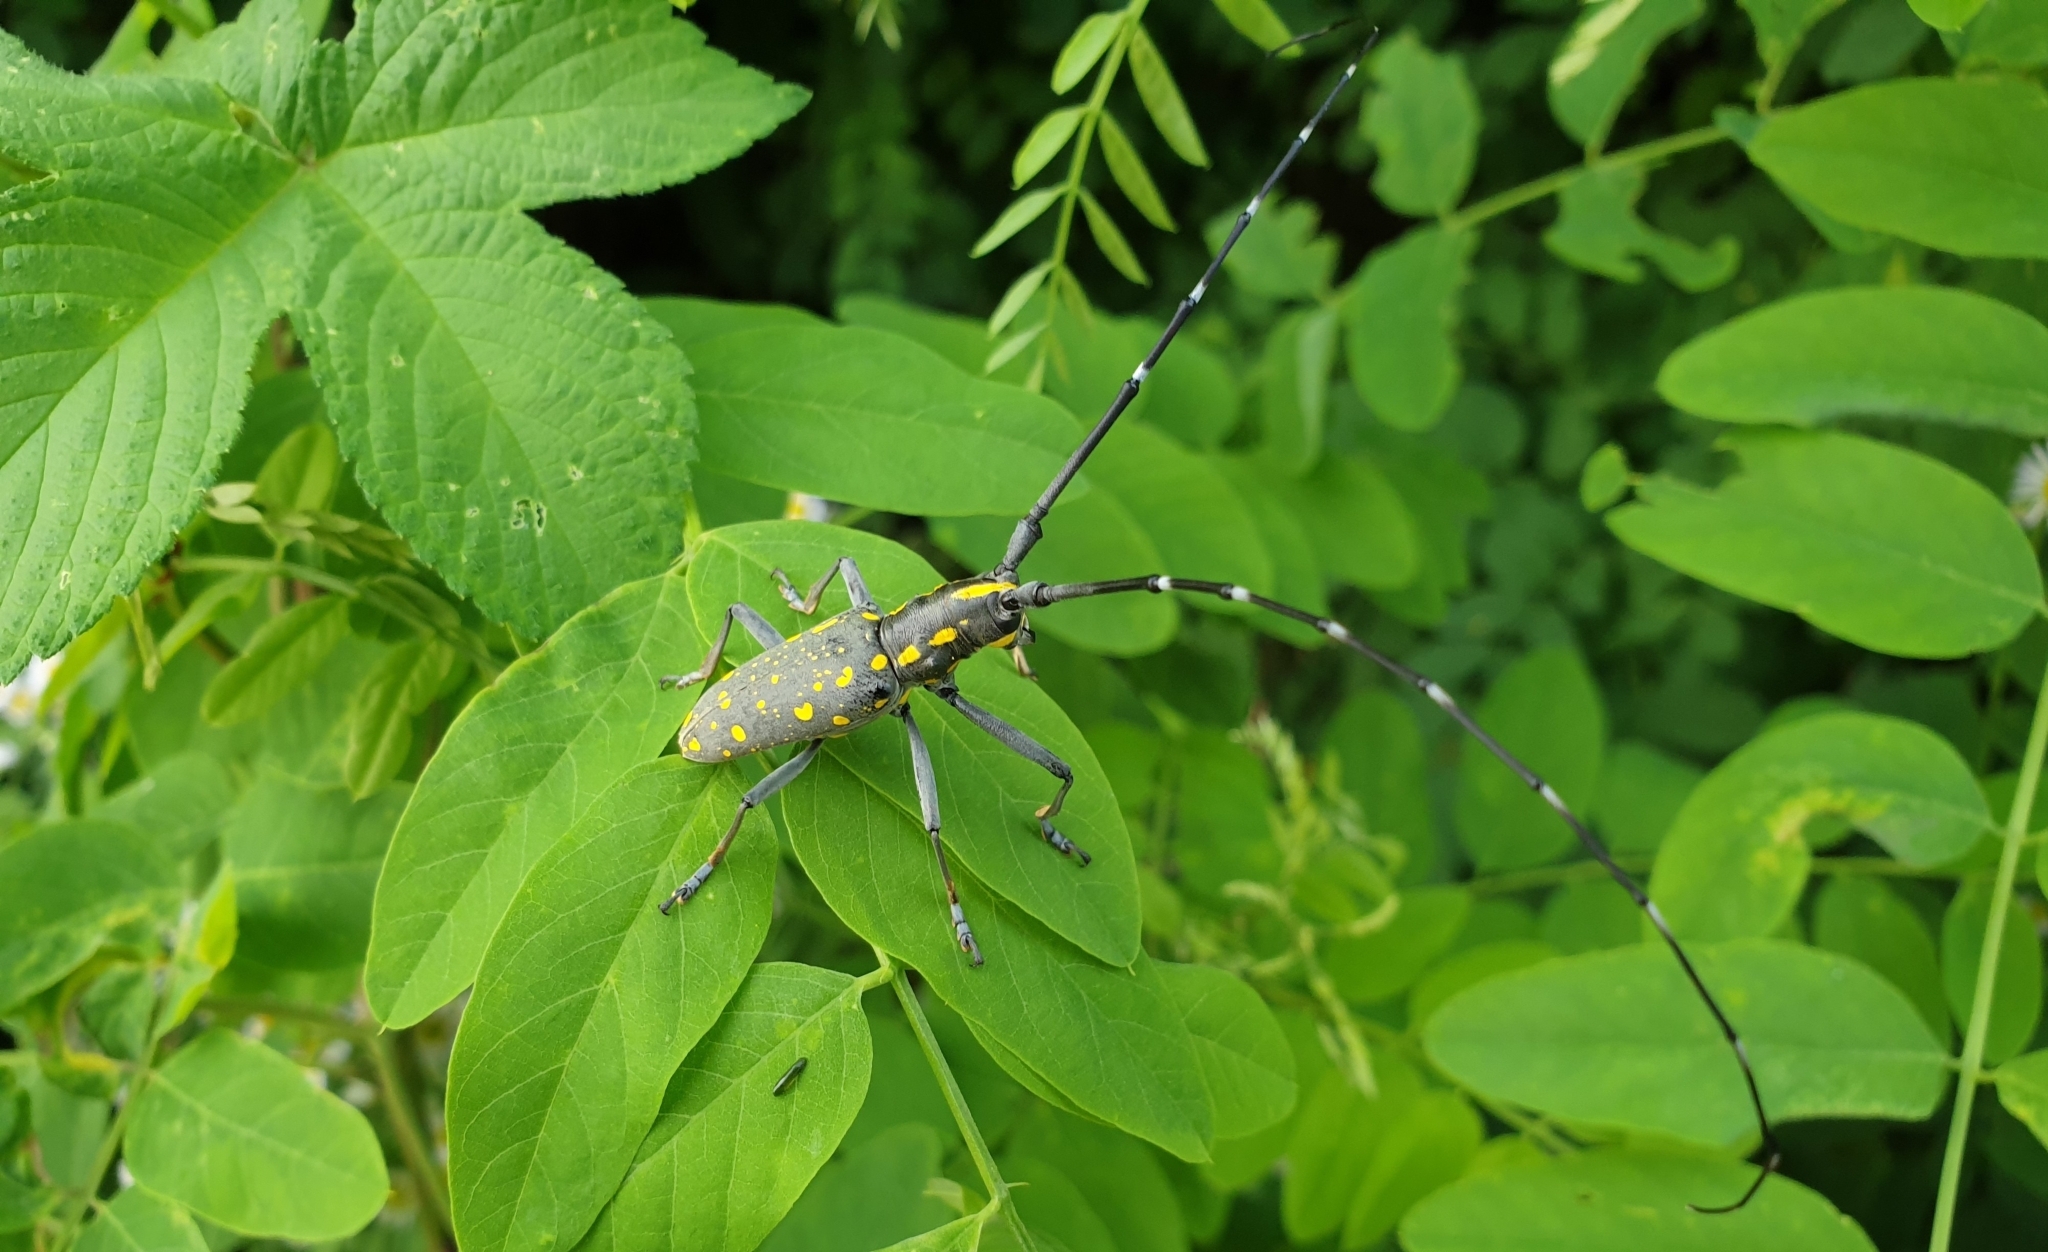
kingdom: Animalia
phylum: Arthropoda
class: Insecta
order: Coleoptera
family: Cerambycidae
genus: Psacothea
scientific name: Psacothea hilaris
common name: Yellow-spotted longicorn beetle
